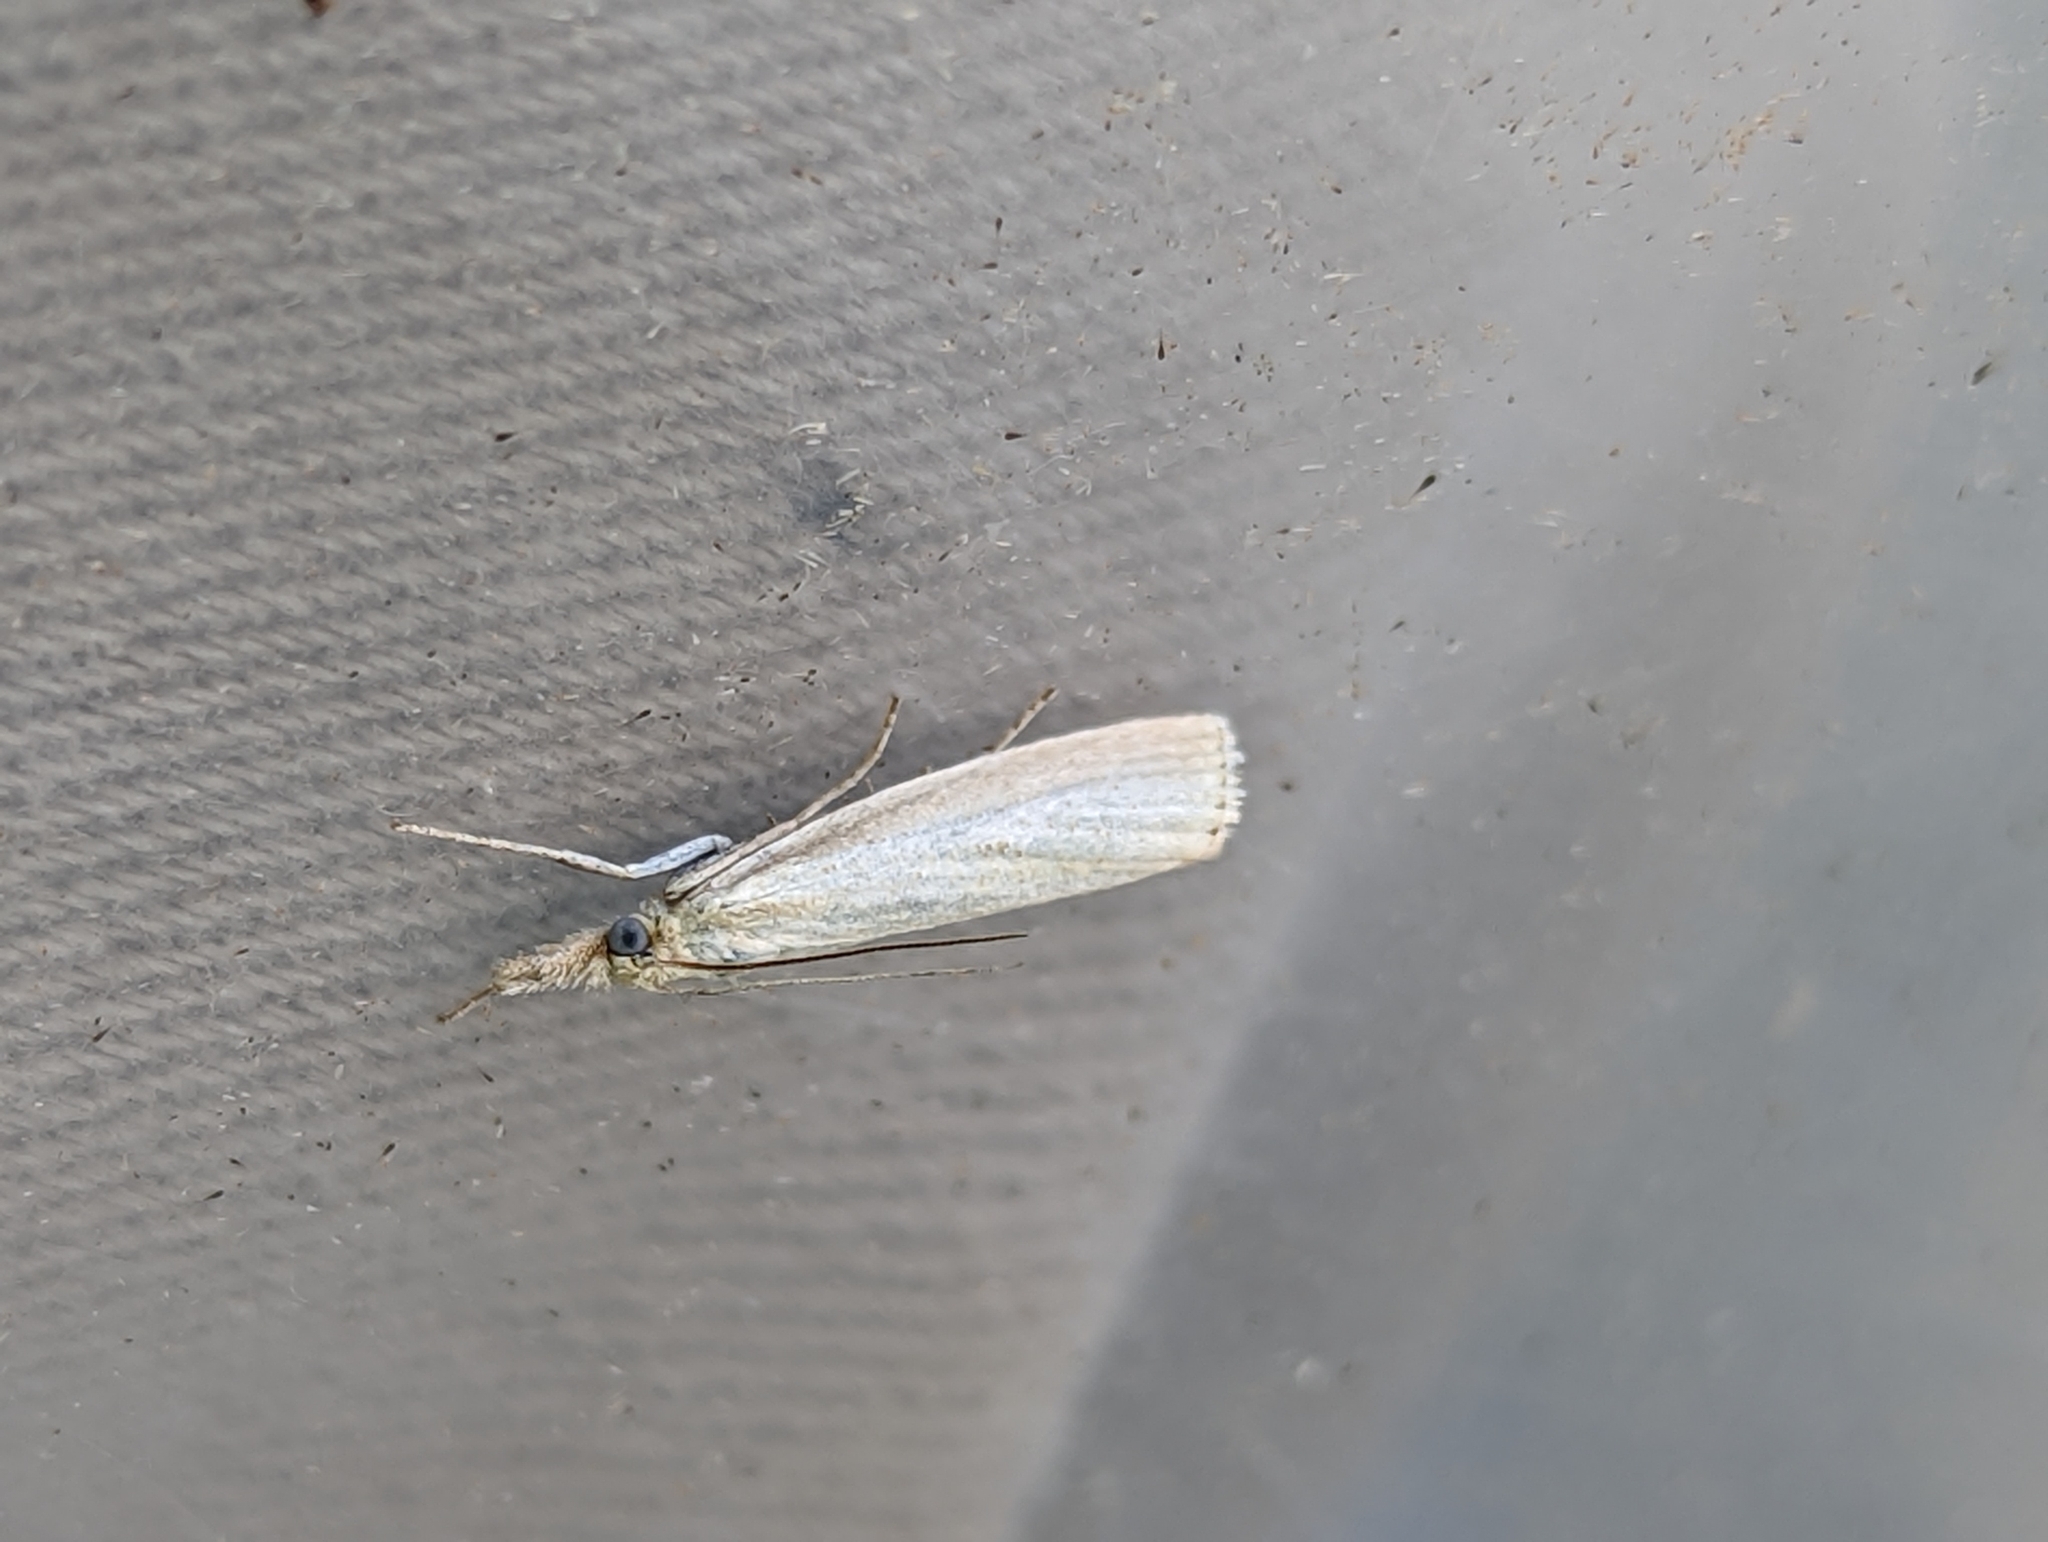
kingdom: Animalia
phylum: Arthropoda
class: Insecta
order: Lepidoptera
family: Crambidae
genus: Agriphila
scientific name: Agriphila straminella
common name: Straw grass-veneer
